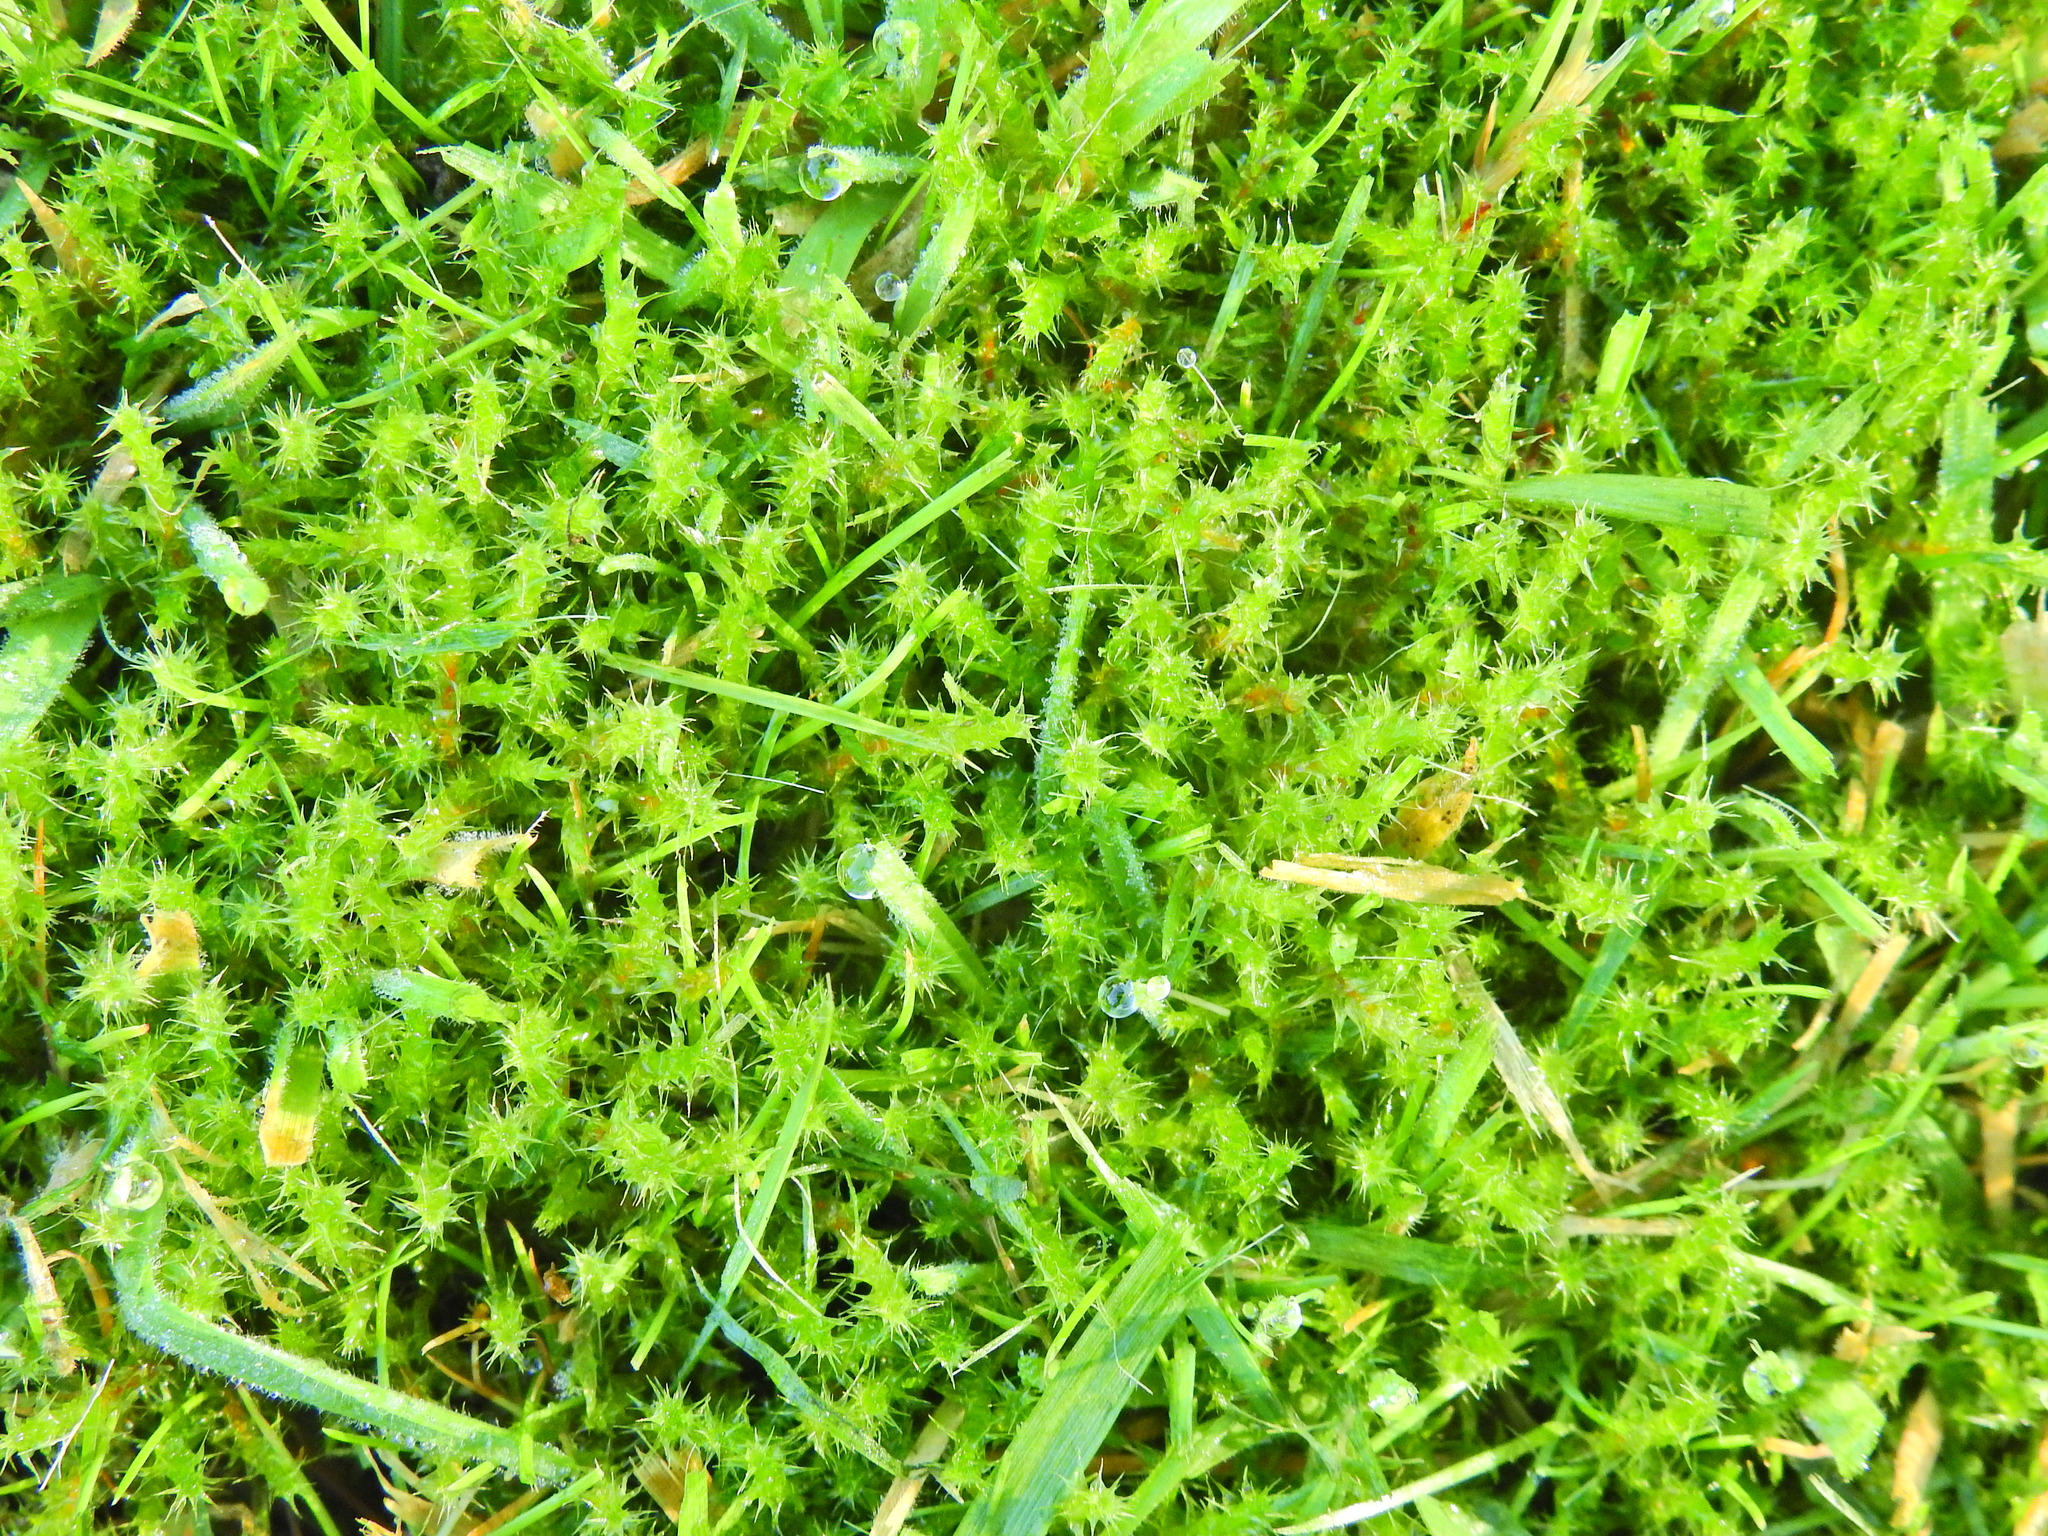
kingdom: Plantae
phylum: Bryophyta
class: Bryopsida
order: Hypnales
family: Hylocomiaceae
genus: Rhytidiadelphus
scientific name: Rhytidiadelphus squarrosus
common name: Springy turf-moss
